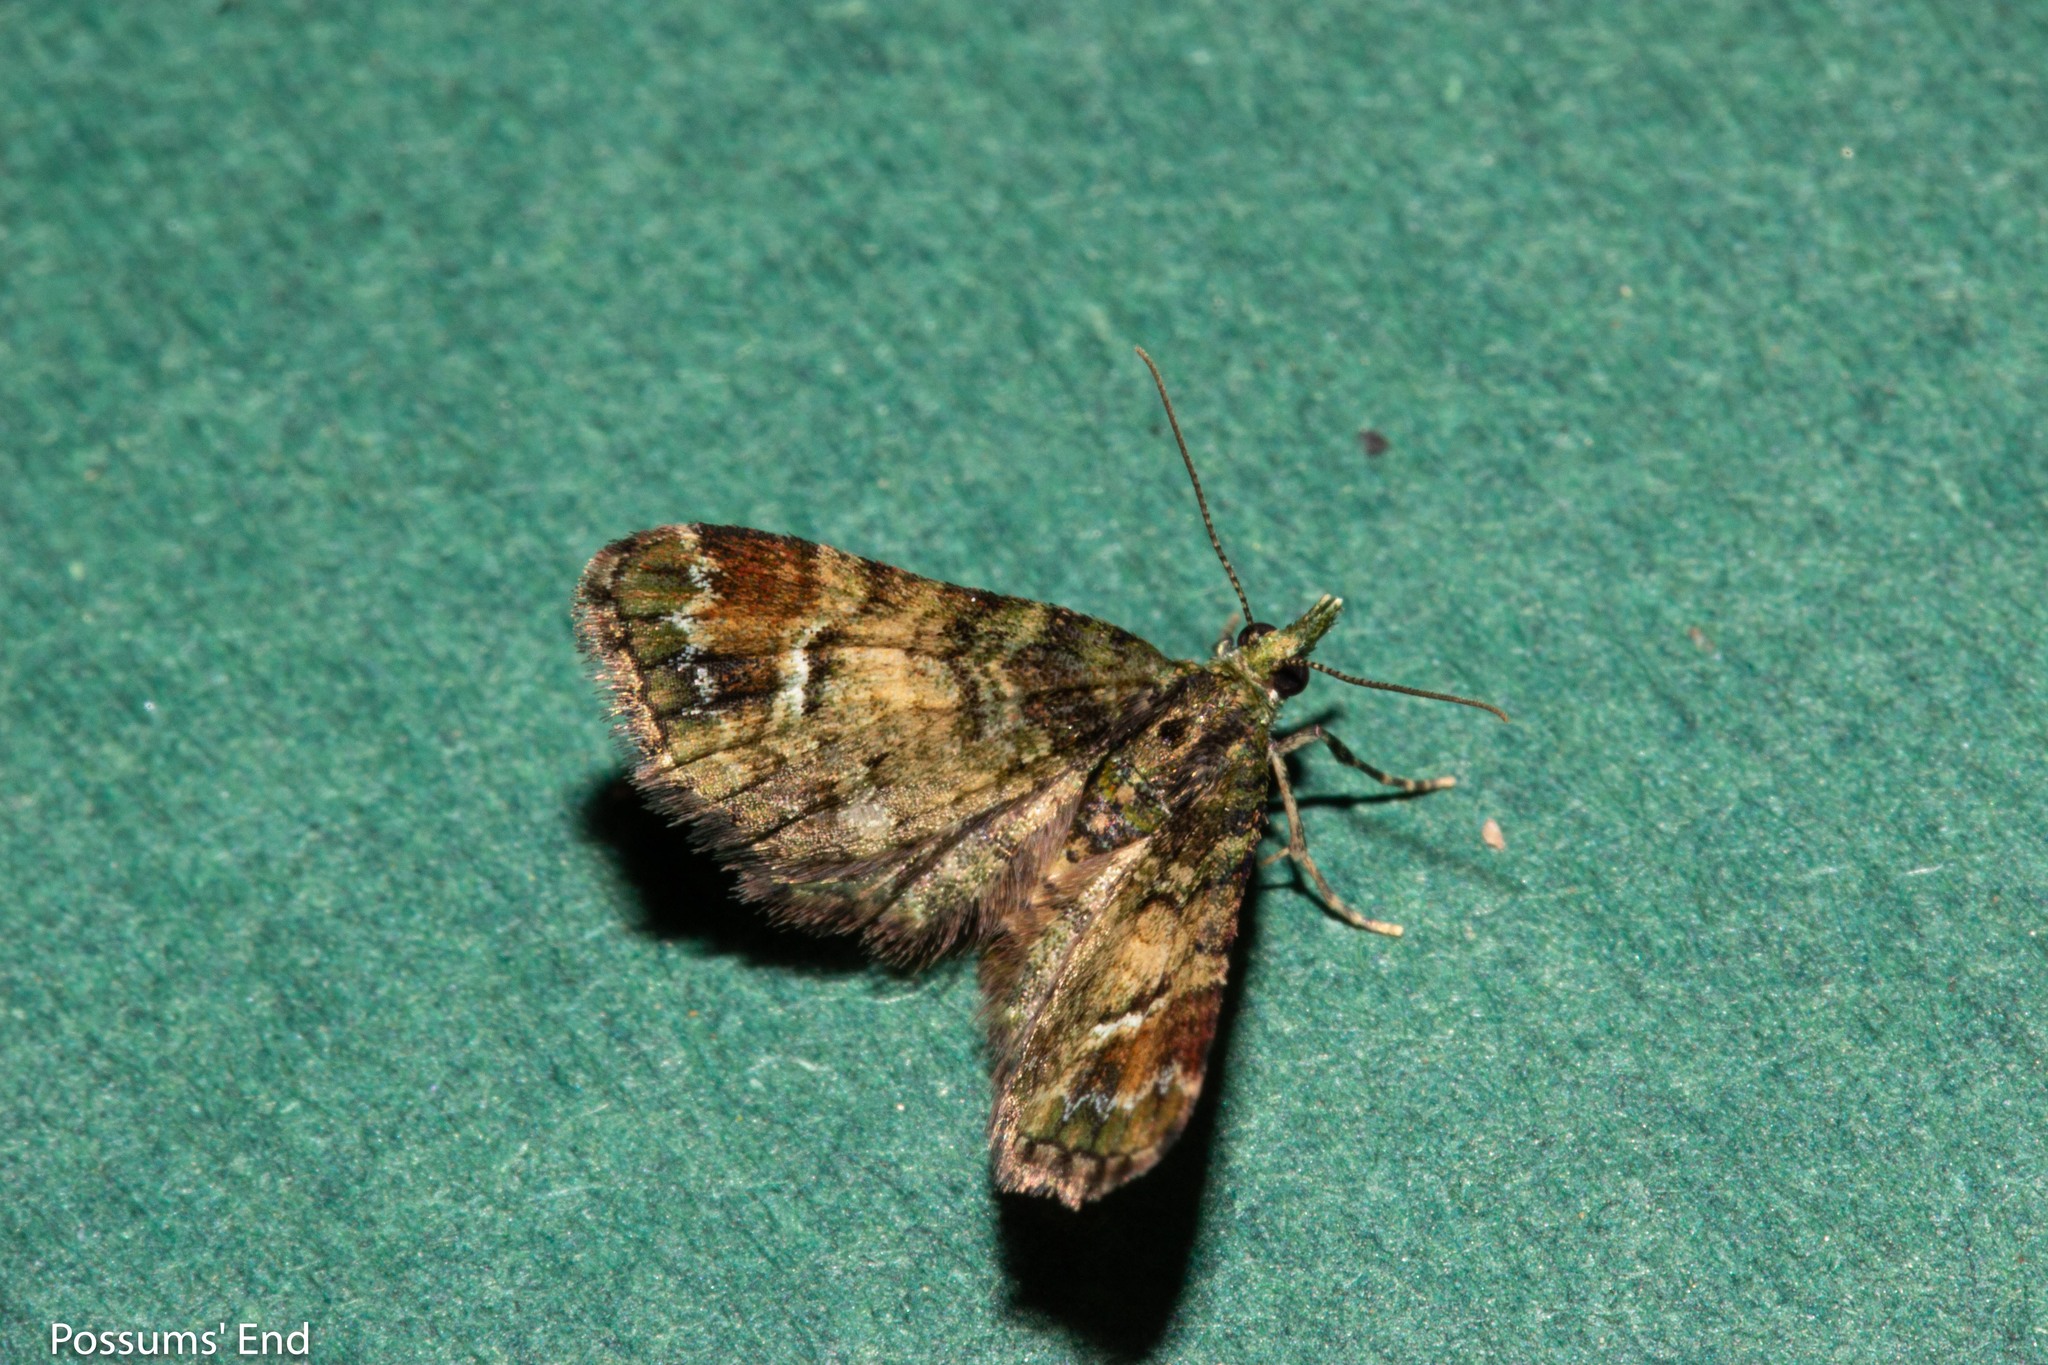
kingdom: Animalia
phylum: Arthropoda
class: Insecta
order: Lepidoptera
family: Geometridae
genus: Pasiphila
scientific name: Pasiphila sandycias
